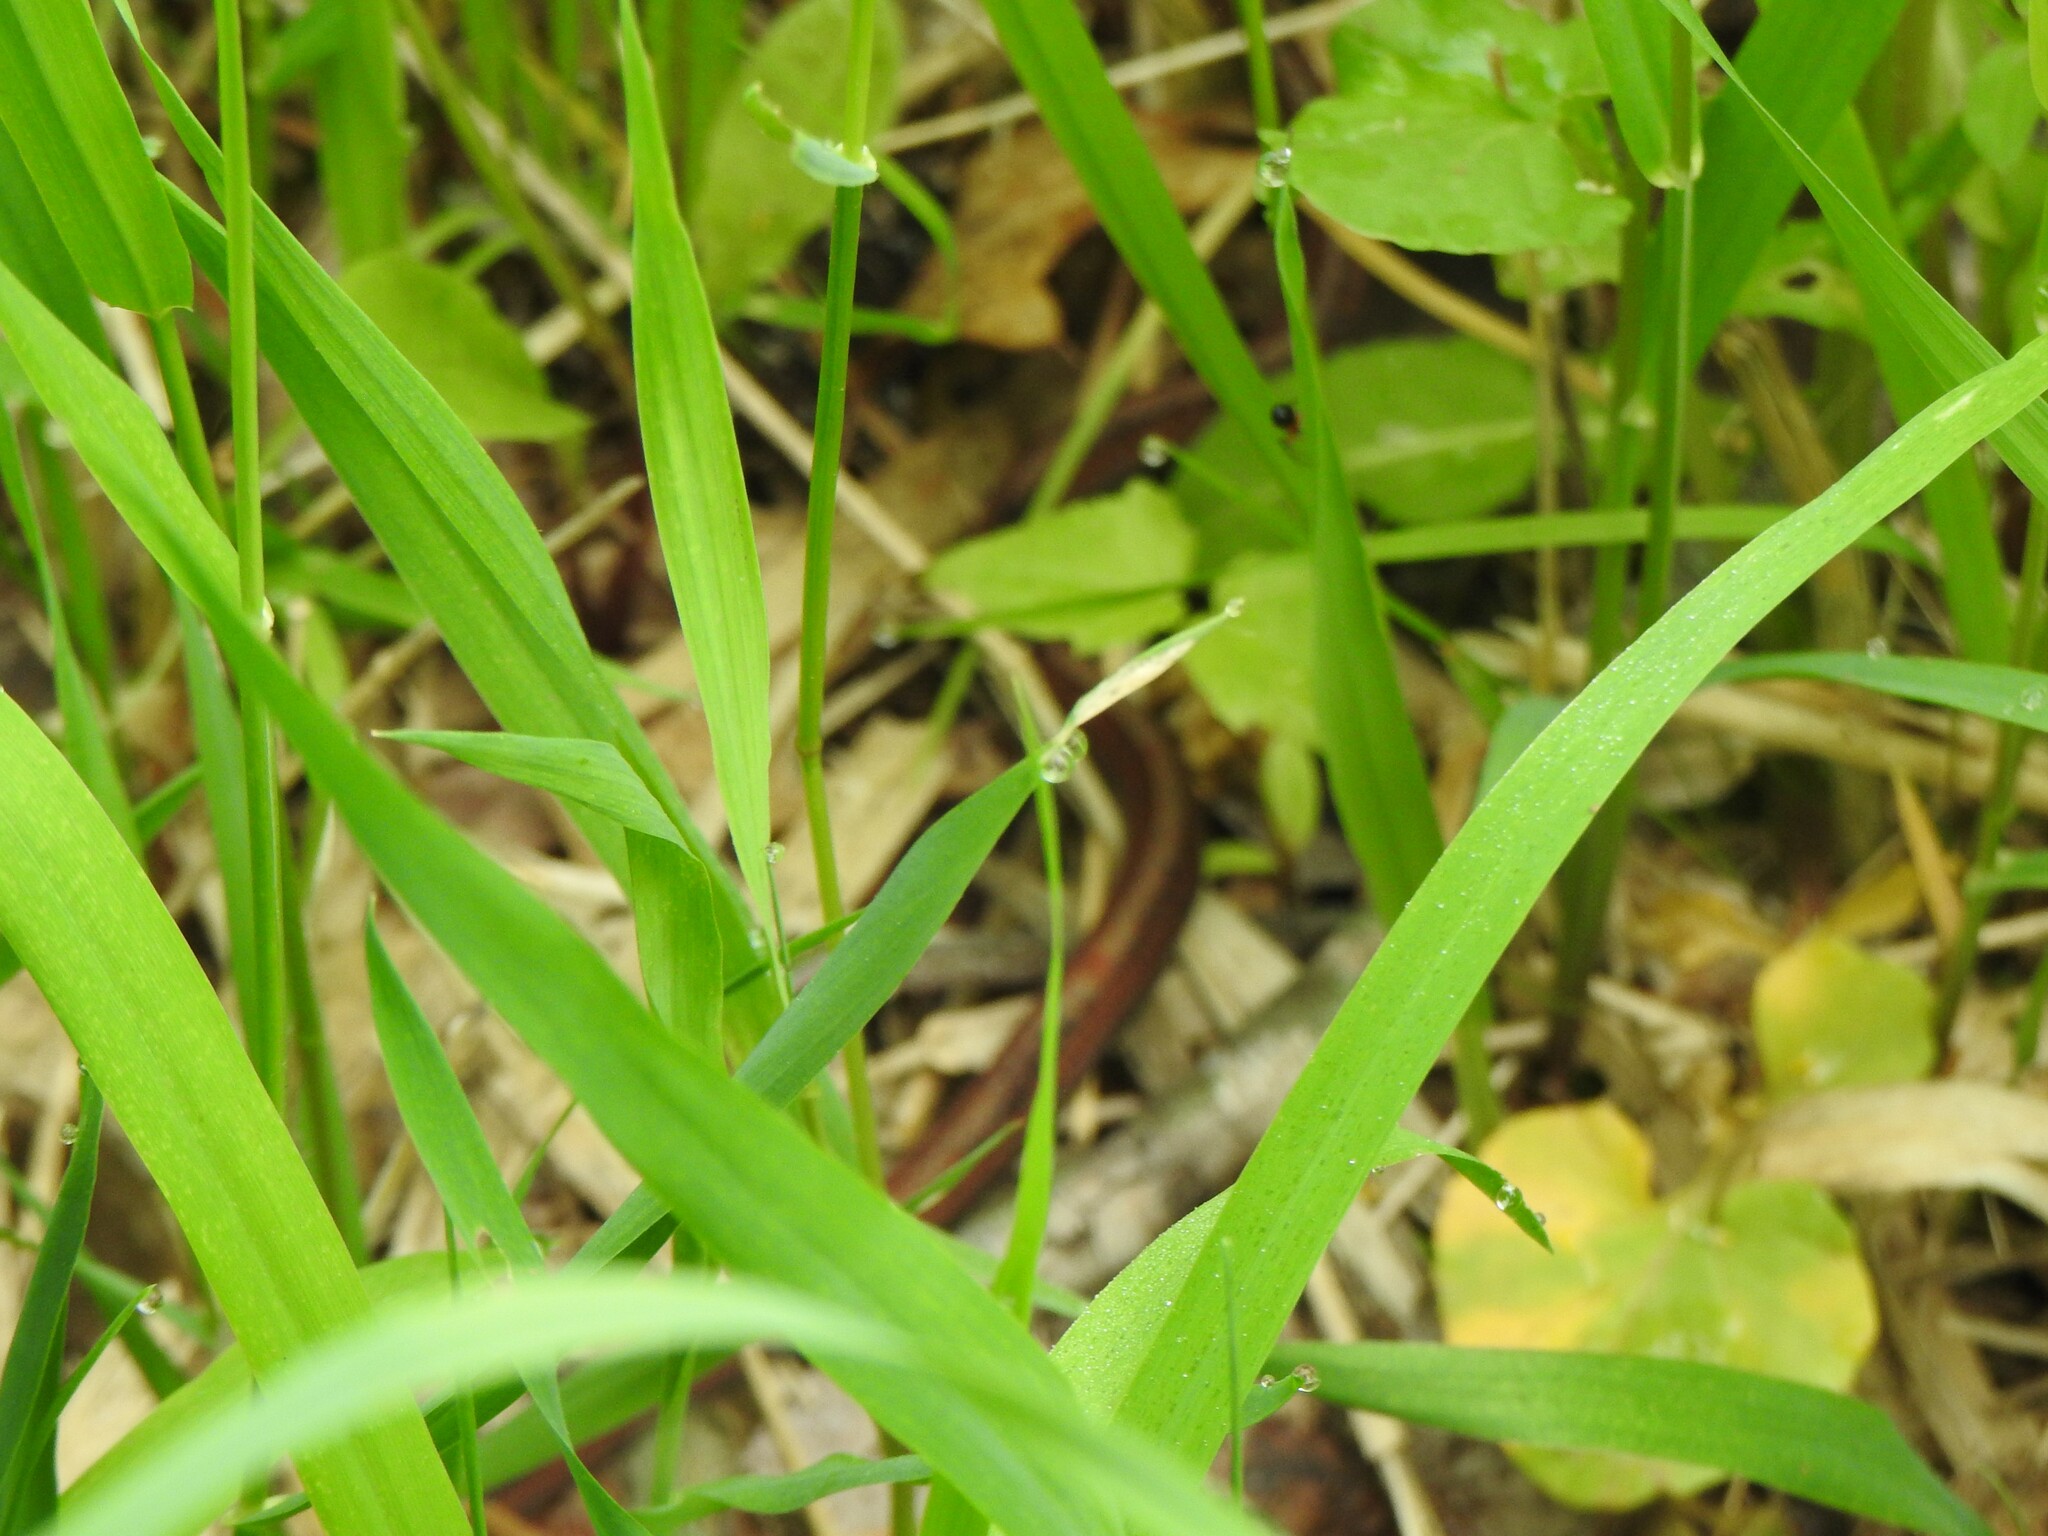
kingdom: Animalia
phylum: Chordata
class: Squamata
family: Colubridae
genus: Storeria
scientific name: Storeria occipitomaculata
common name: Redbelly snake
